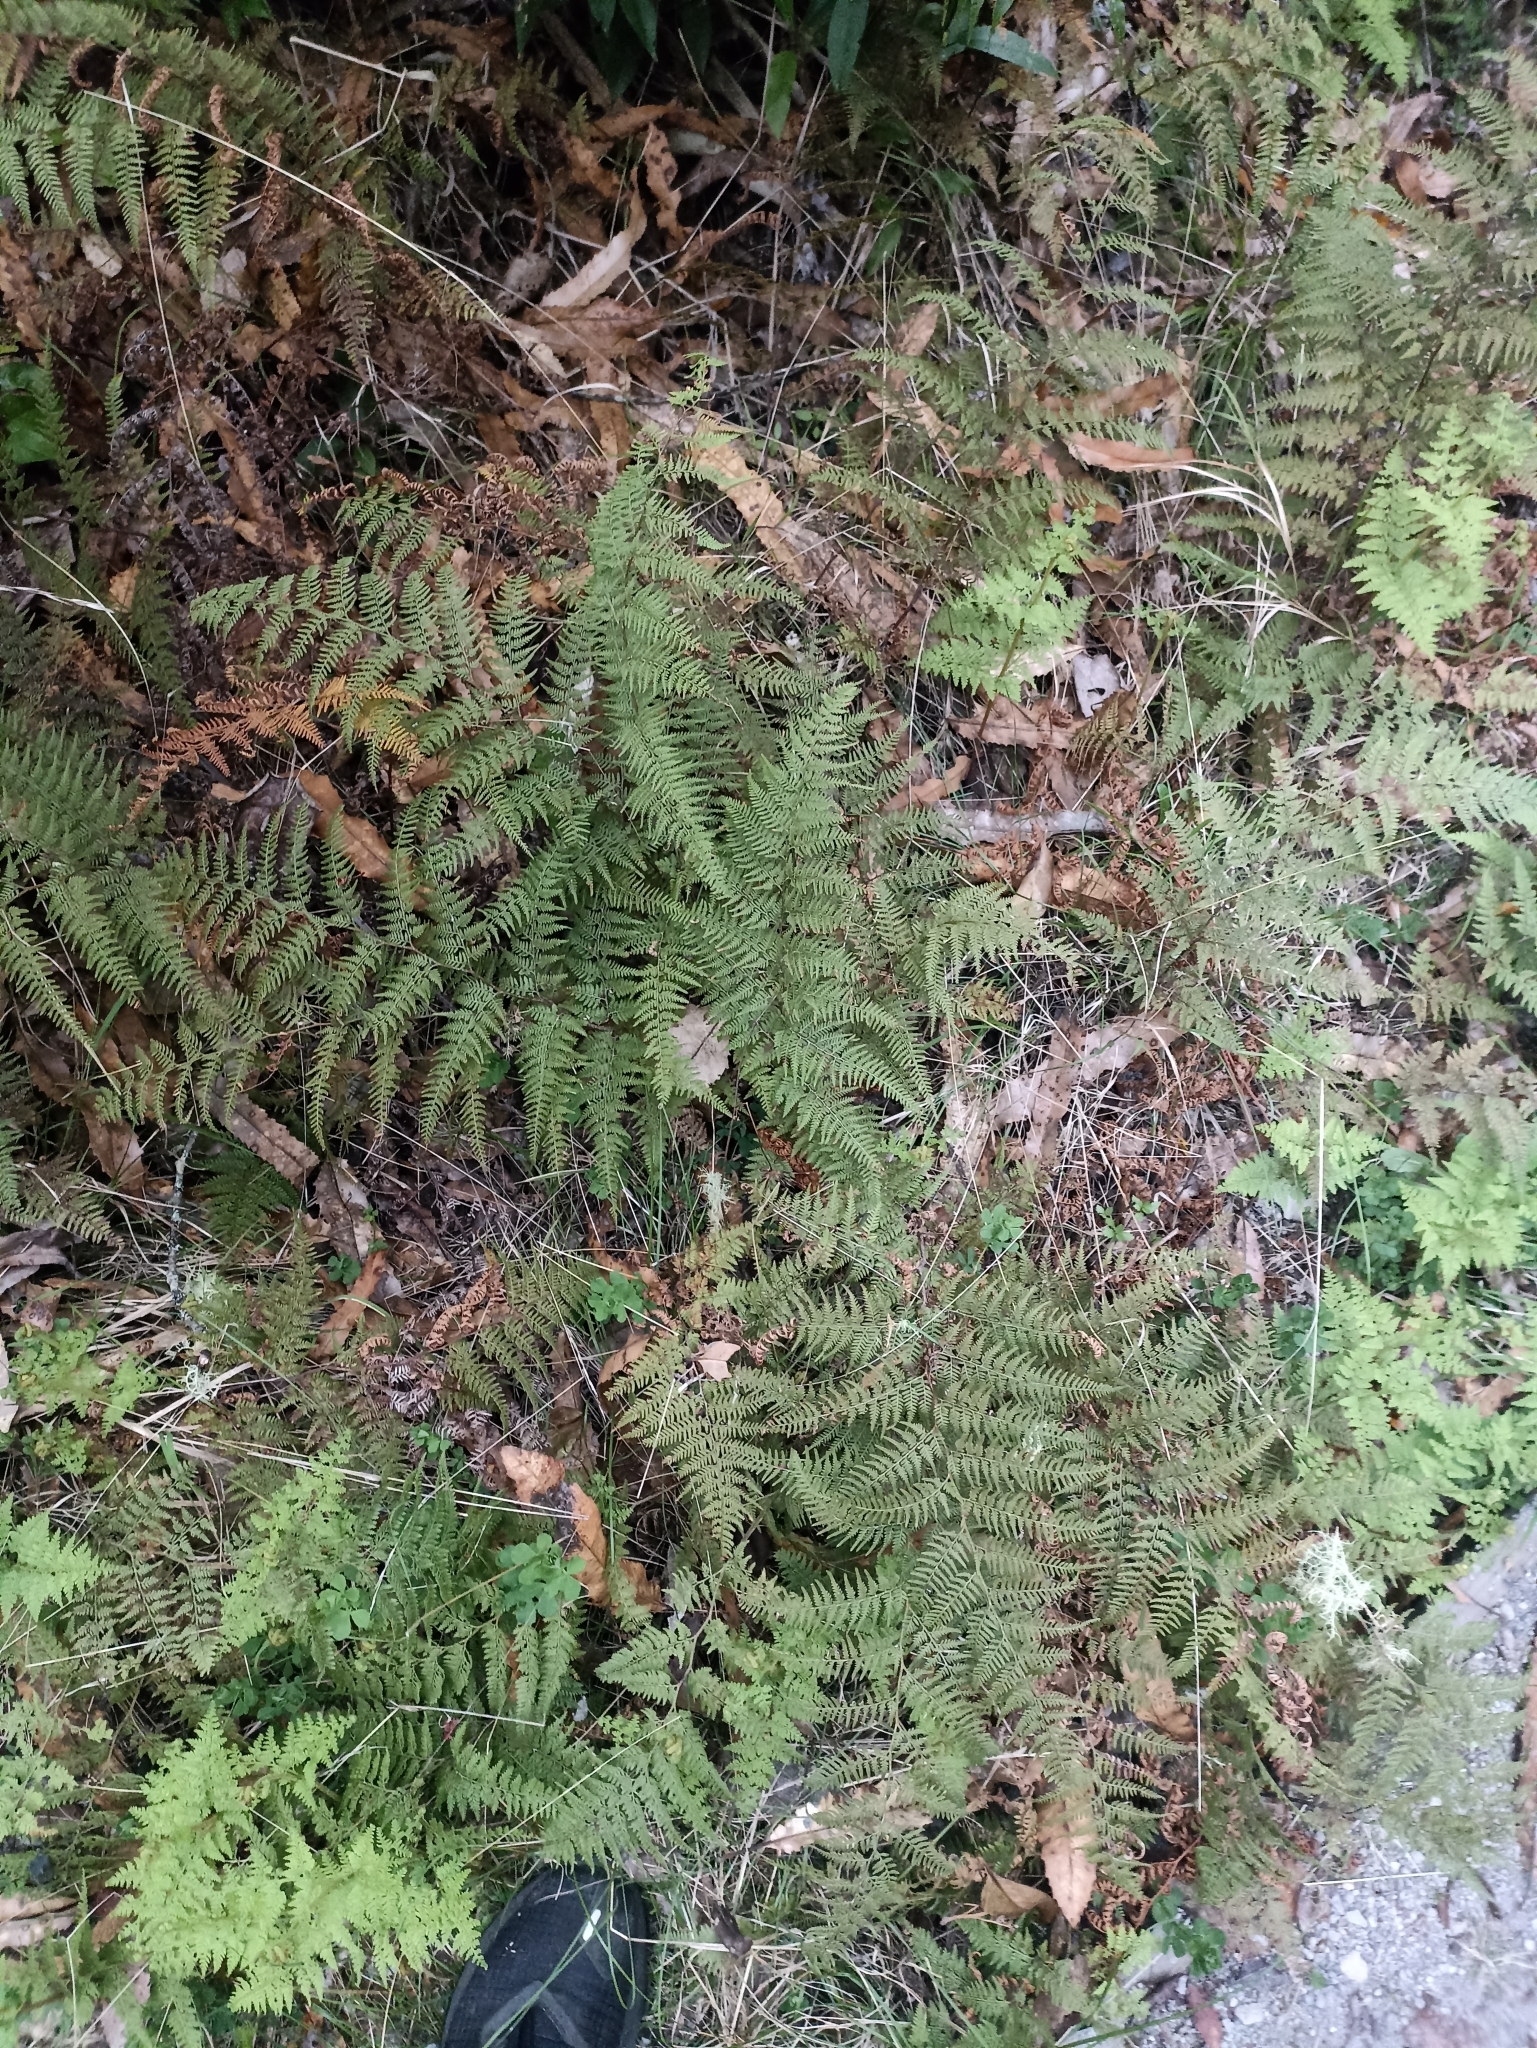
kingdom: Plantae
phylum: Tracheophyta
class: Polypodiopsida
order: Polypodiales
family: Dennstaedtiaceae
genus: Paesia
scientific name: Paesia scaberula
